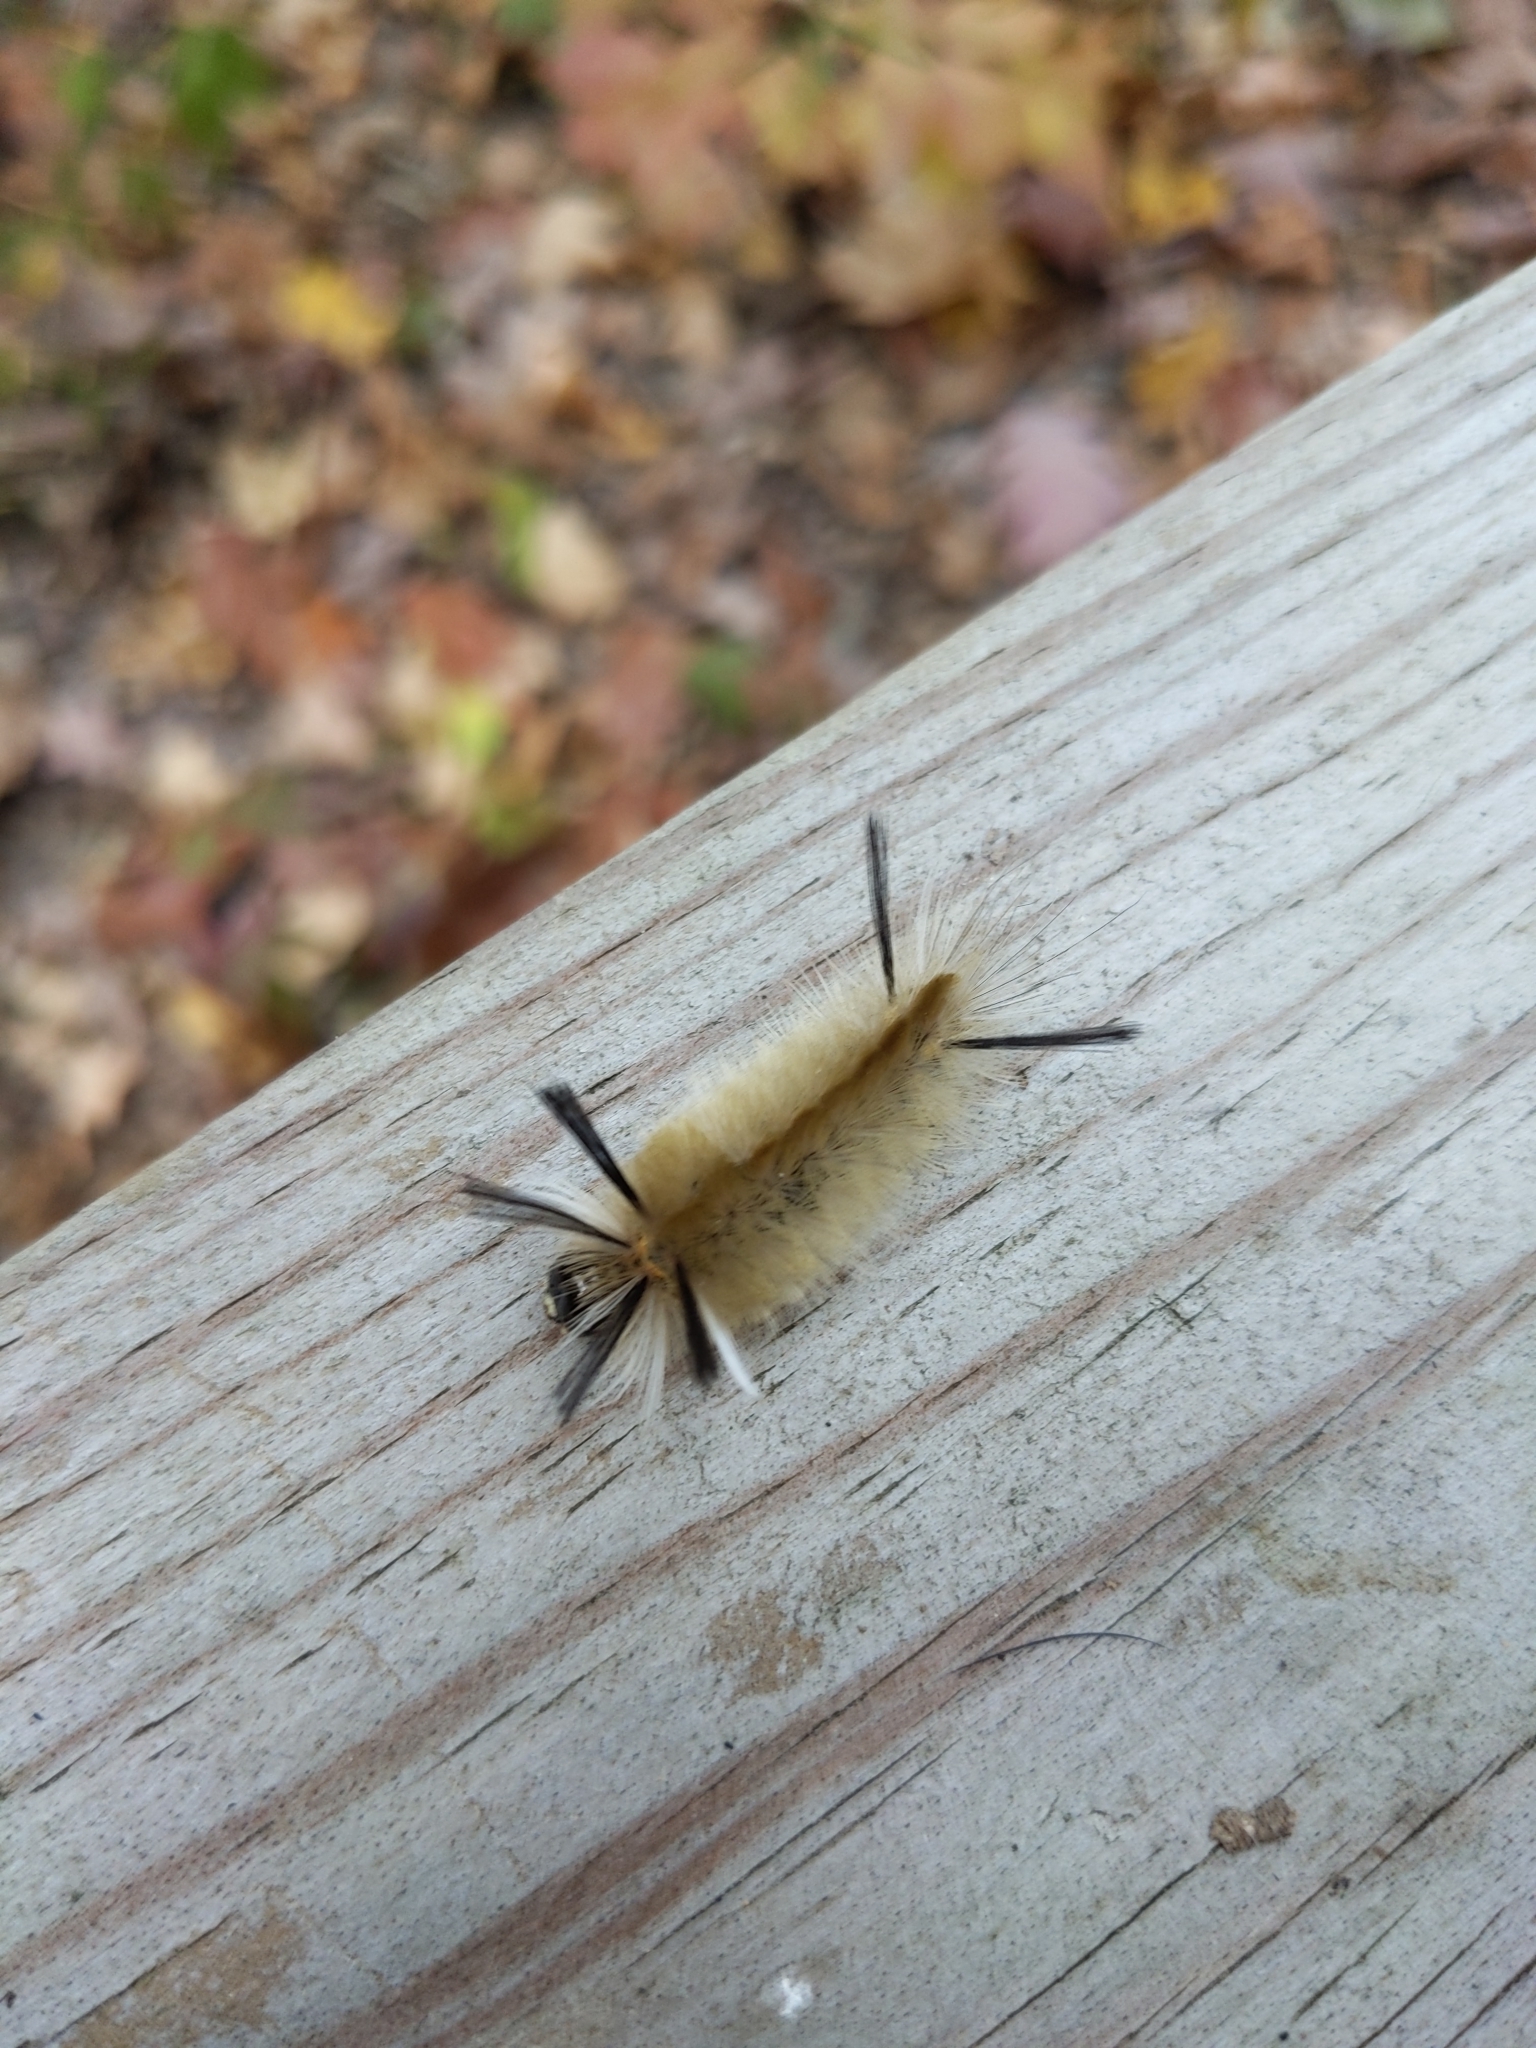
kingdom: Animalia
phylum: Arthropoda
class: Insecta
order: Lepidoptera
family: Erebidae
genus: Halysidota
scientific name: Halysidota tessellaris
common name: Banded tussock moth
